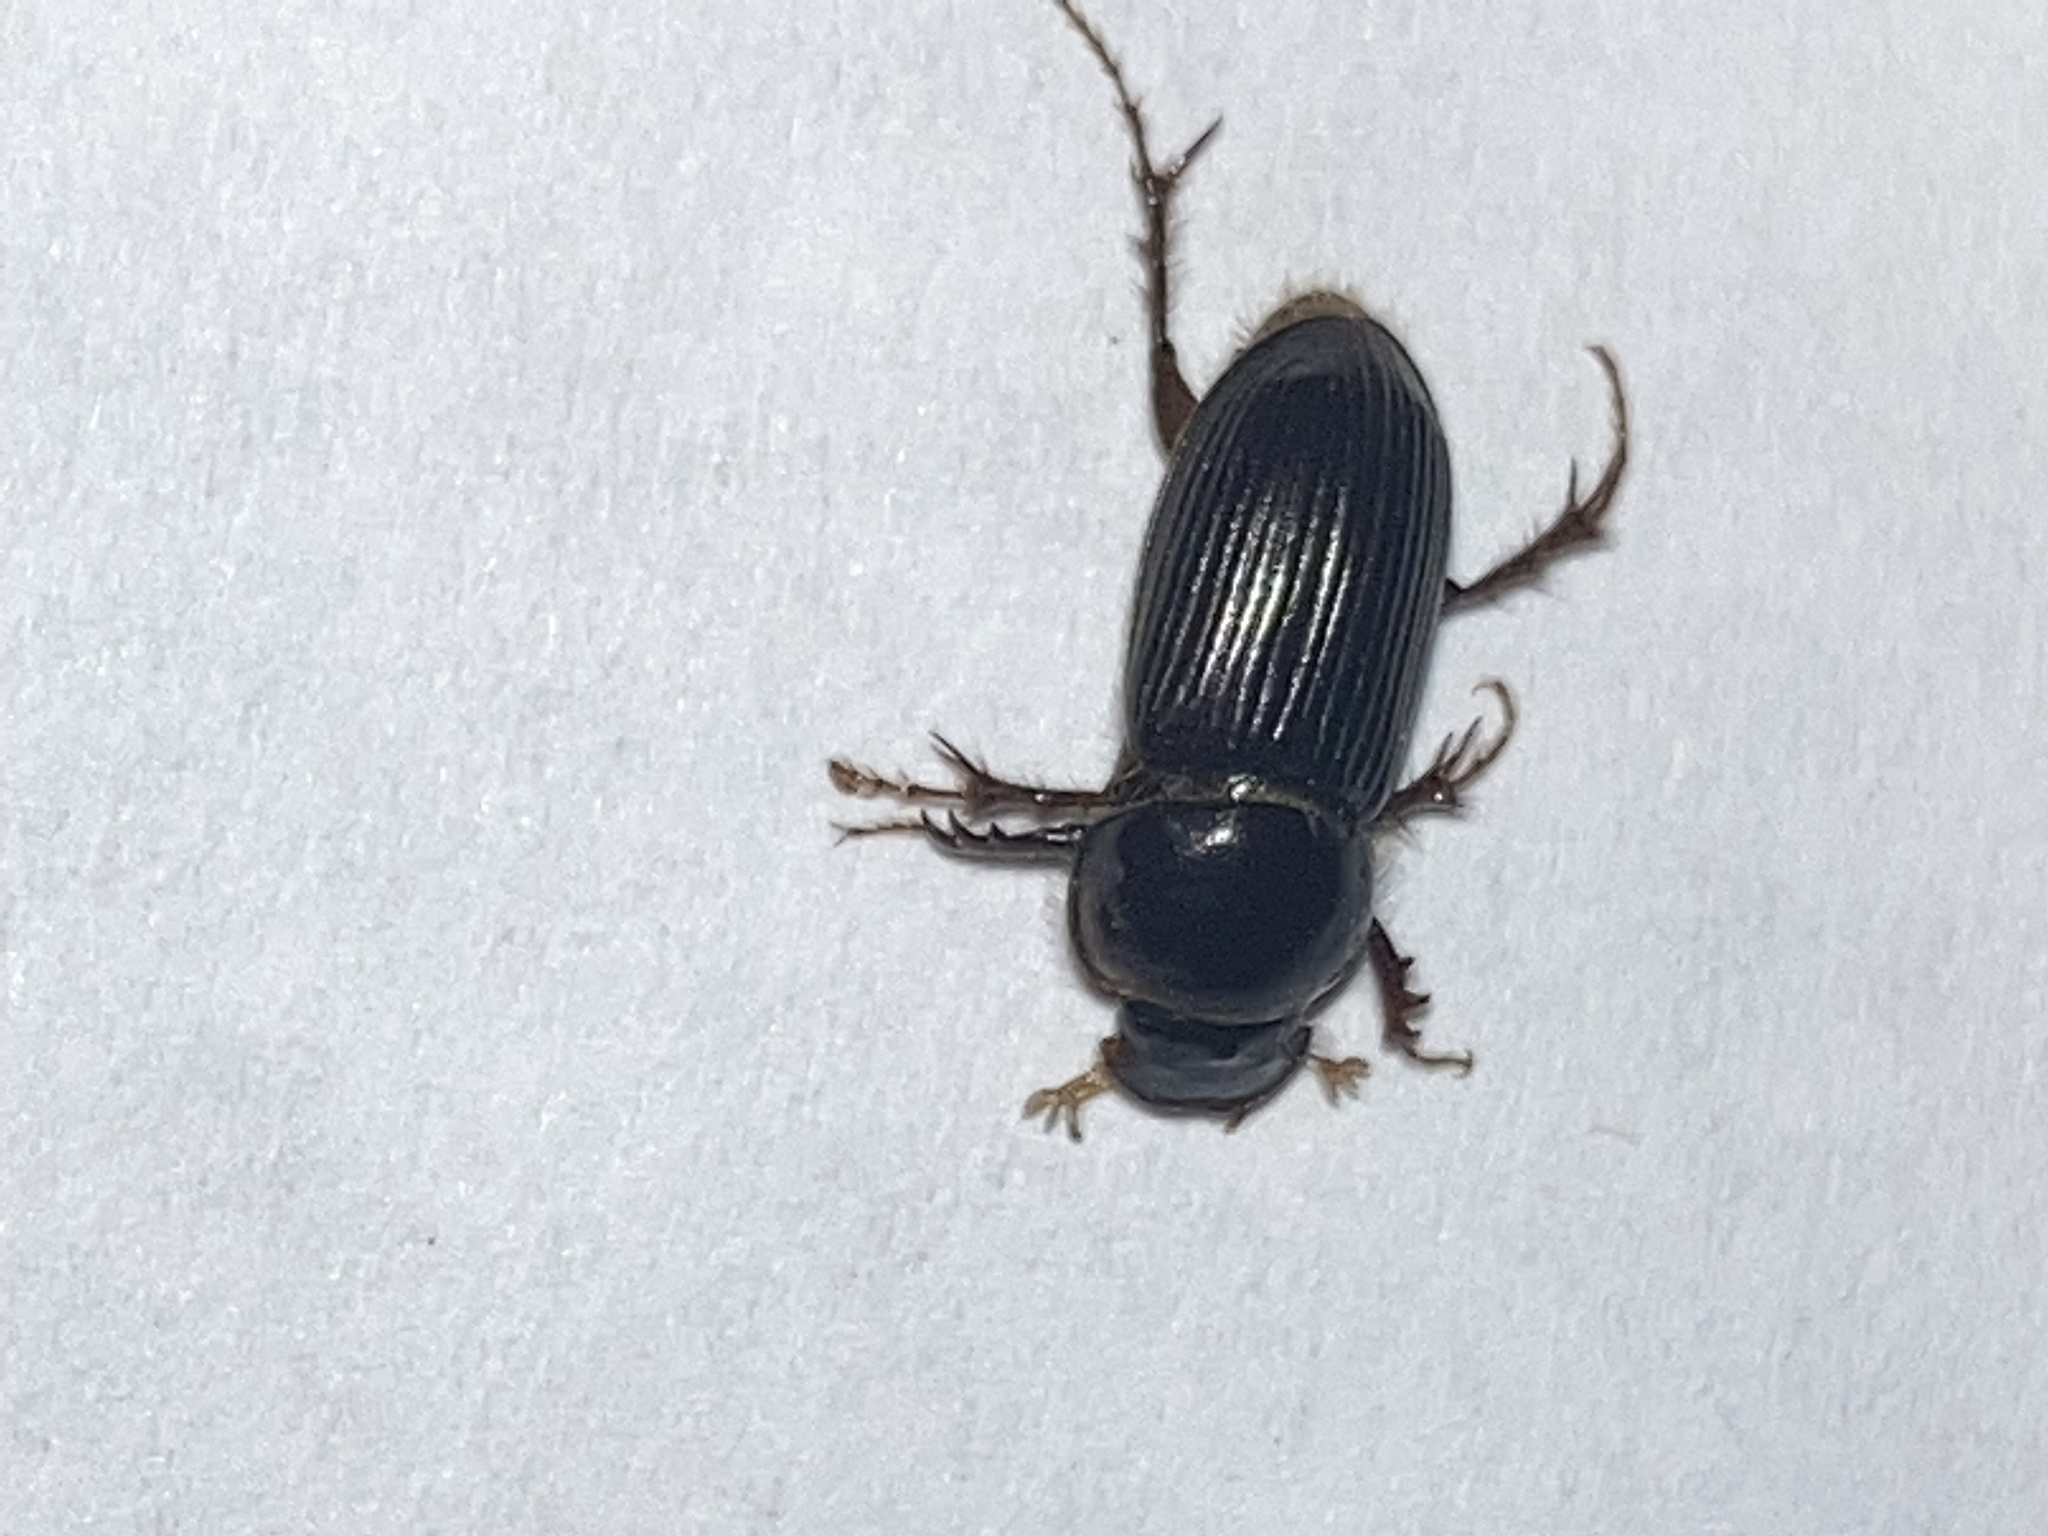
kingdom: Animalia
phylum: Arthropoda
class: Insecta
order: Coleoptera
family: Scarabaeidae
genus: Acrossidius
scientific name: Acrossidius tasmaniae
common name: Black-headed pasture cockchafer
